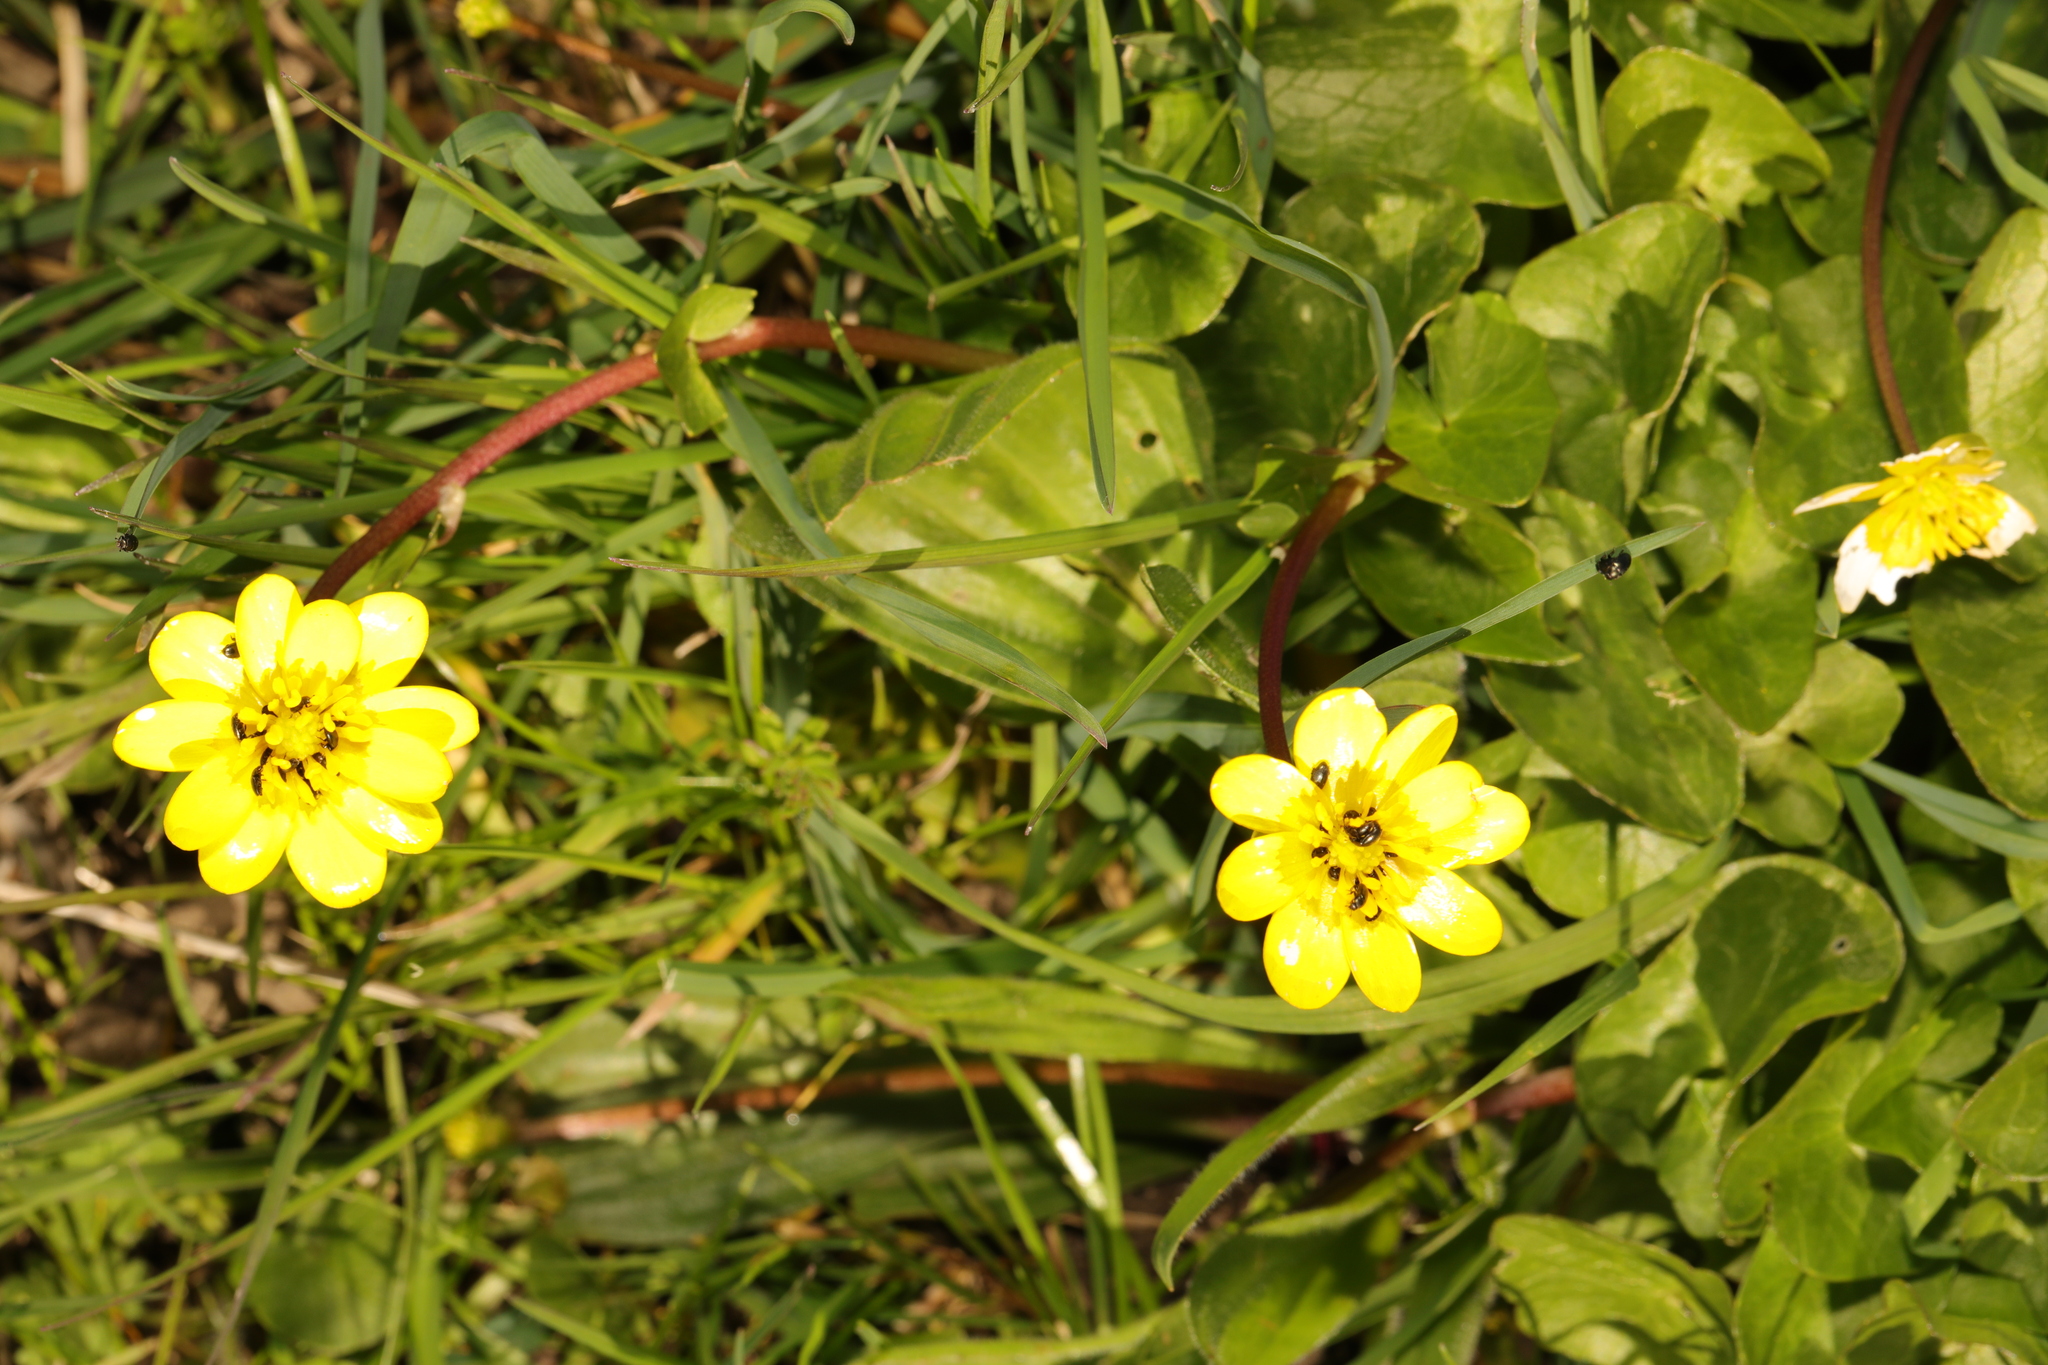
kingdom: Plantae
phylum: Tracheophyta
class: Magnoliopsida
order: Ranunculales
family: Ranunculaceae
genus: Ficaria
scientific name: Ficaria verna
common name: Lesser celandine
